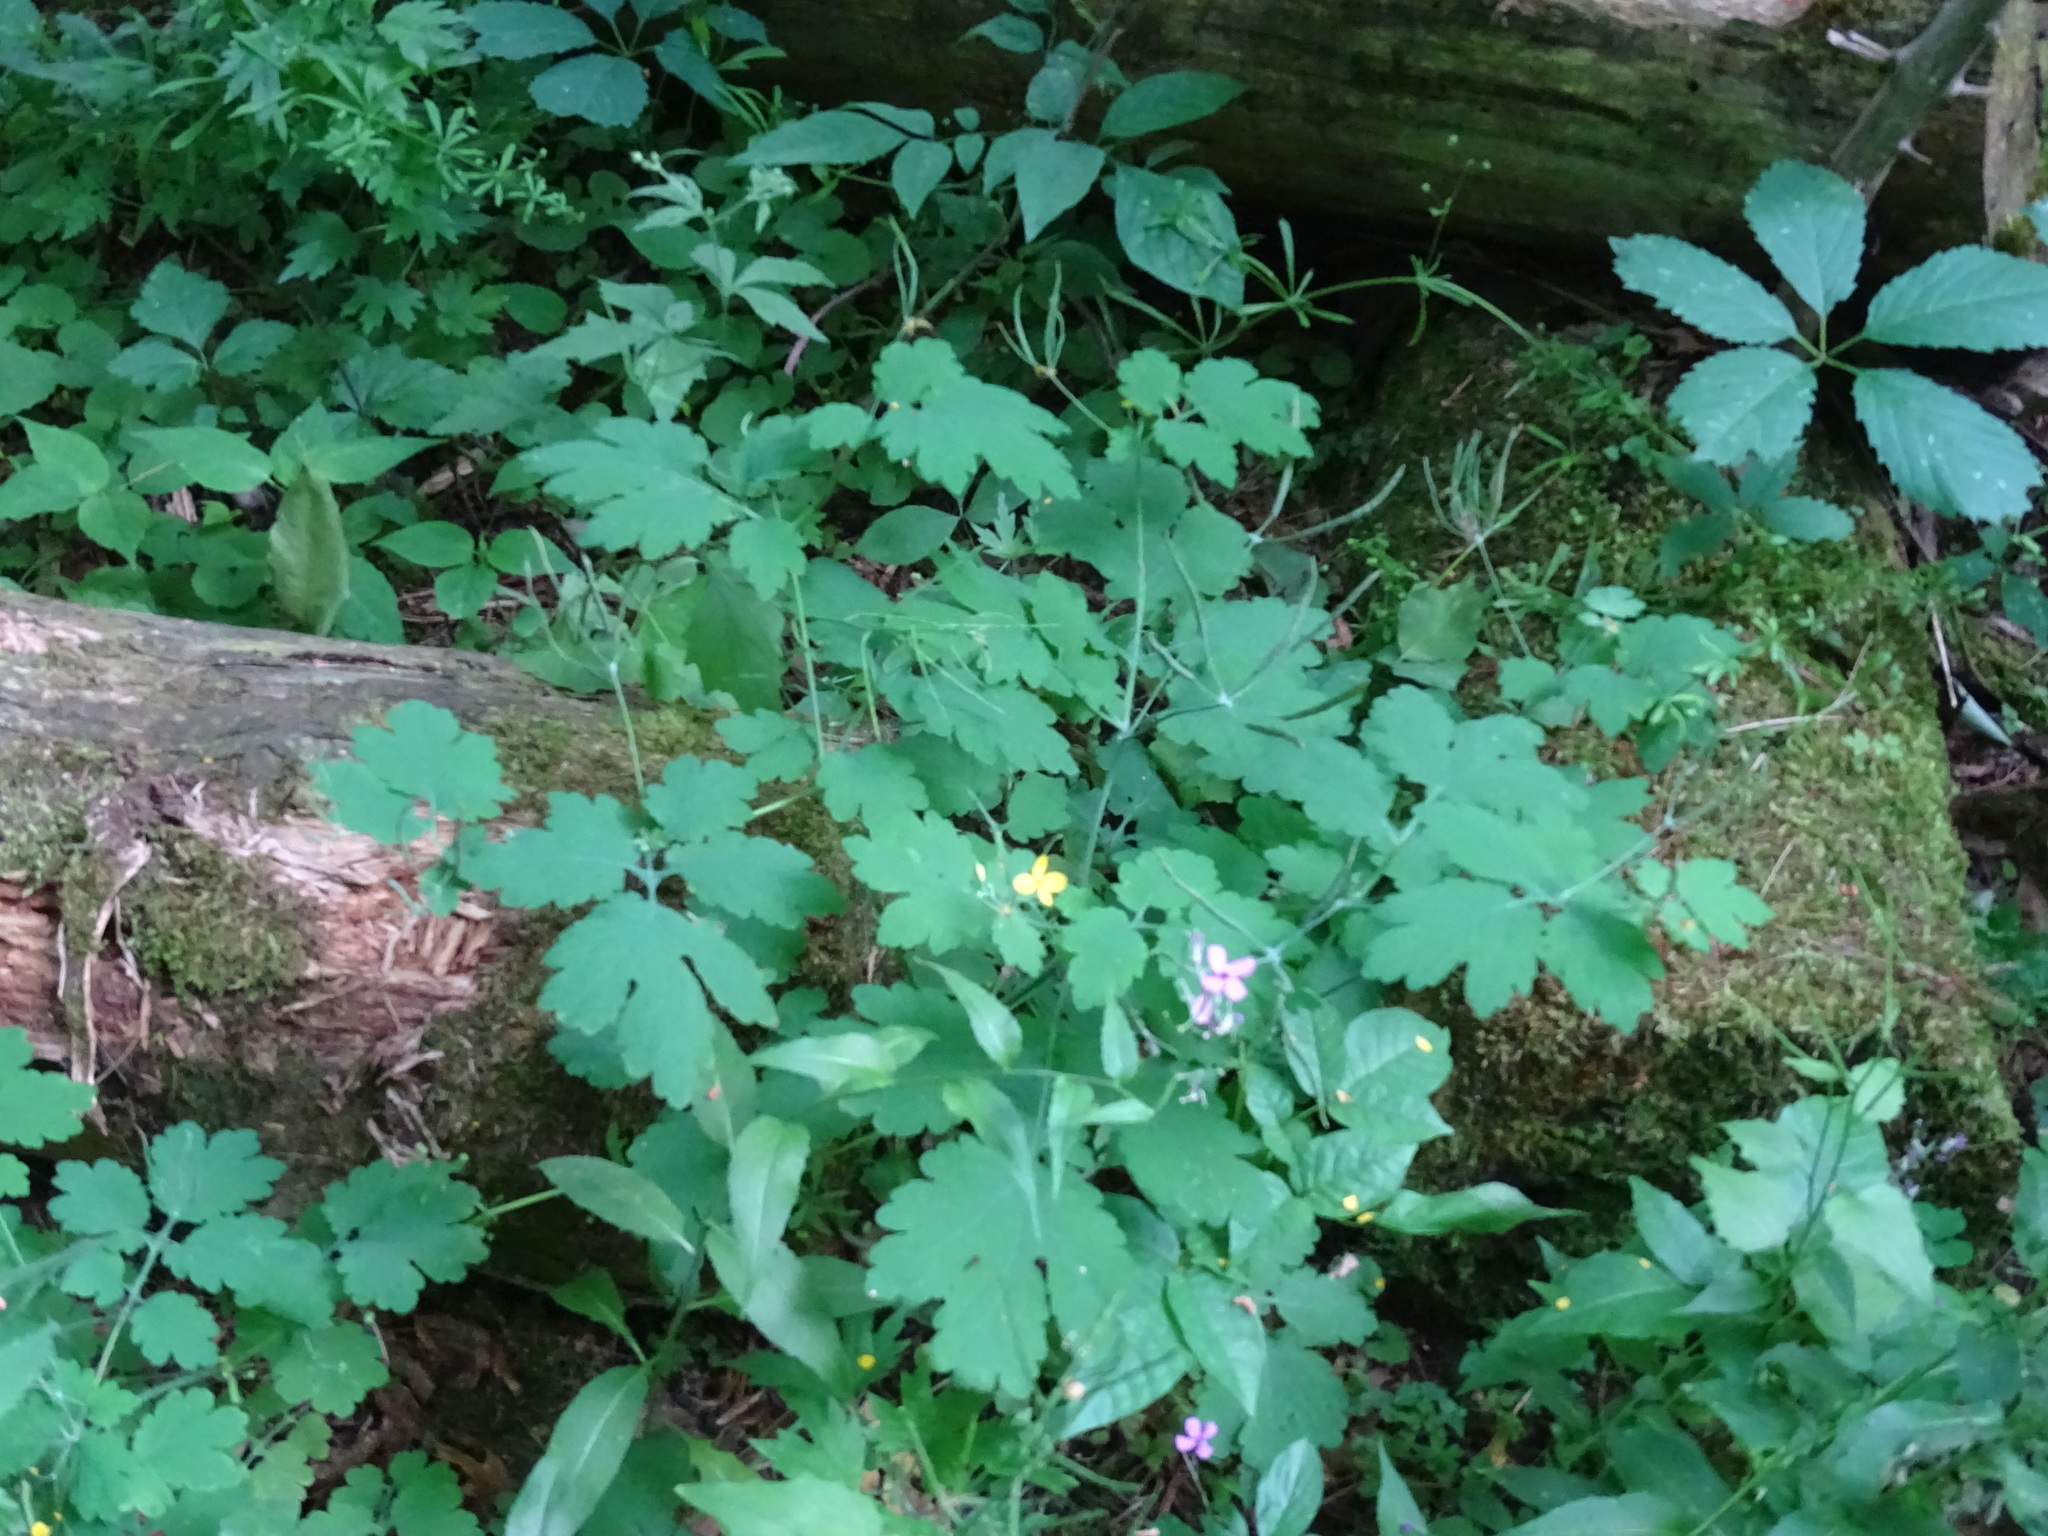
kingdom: Plantae
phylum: Tracheophyta
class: Magnoliopsida
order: Ranunculales
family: Papaveraceae
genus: Chelidonium
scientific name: Chelidonium majus
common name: Greater celandine
